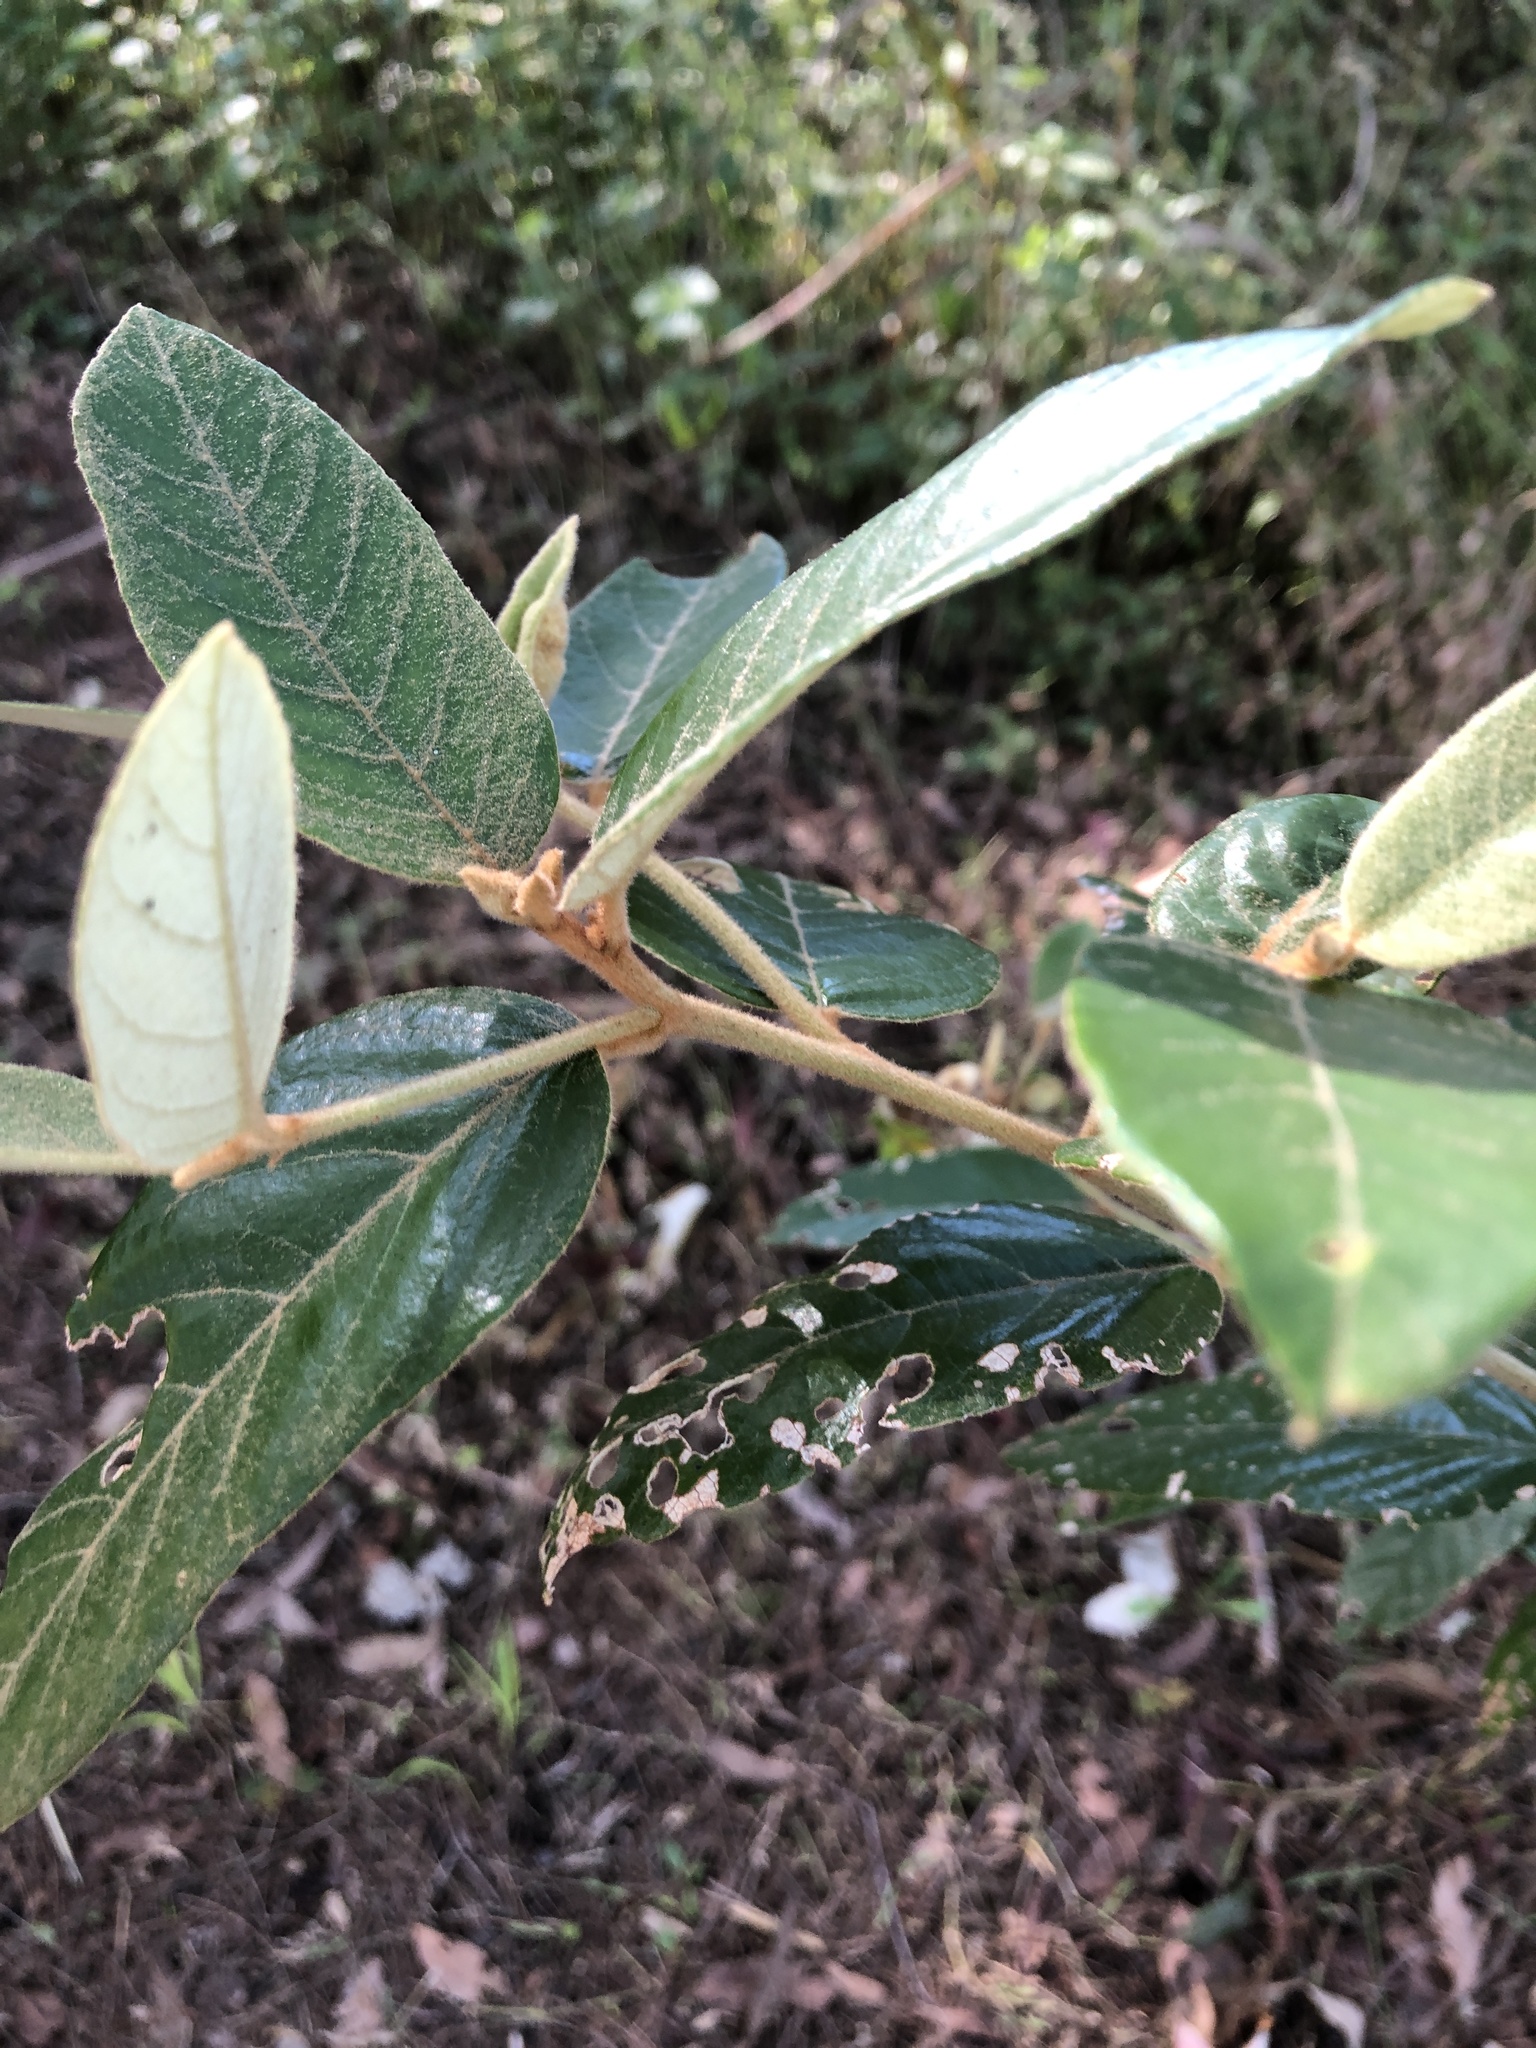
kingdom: Plantae
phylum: Tracheophyta
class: Magnoliopsida
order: Rosales
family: Rhamnaceae
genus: Alphitonia
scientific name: Alphitonia excelsa
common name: Red ash
